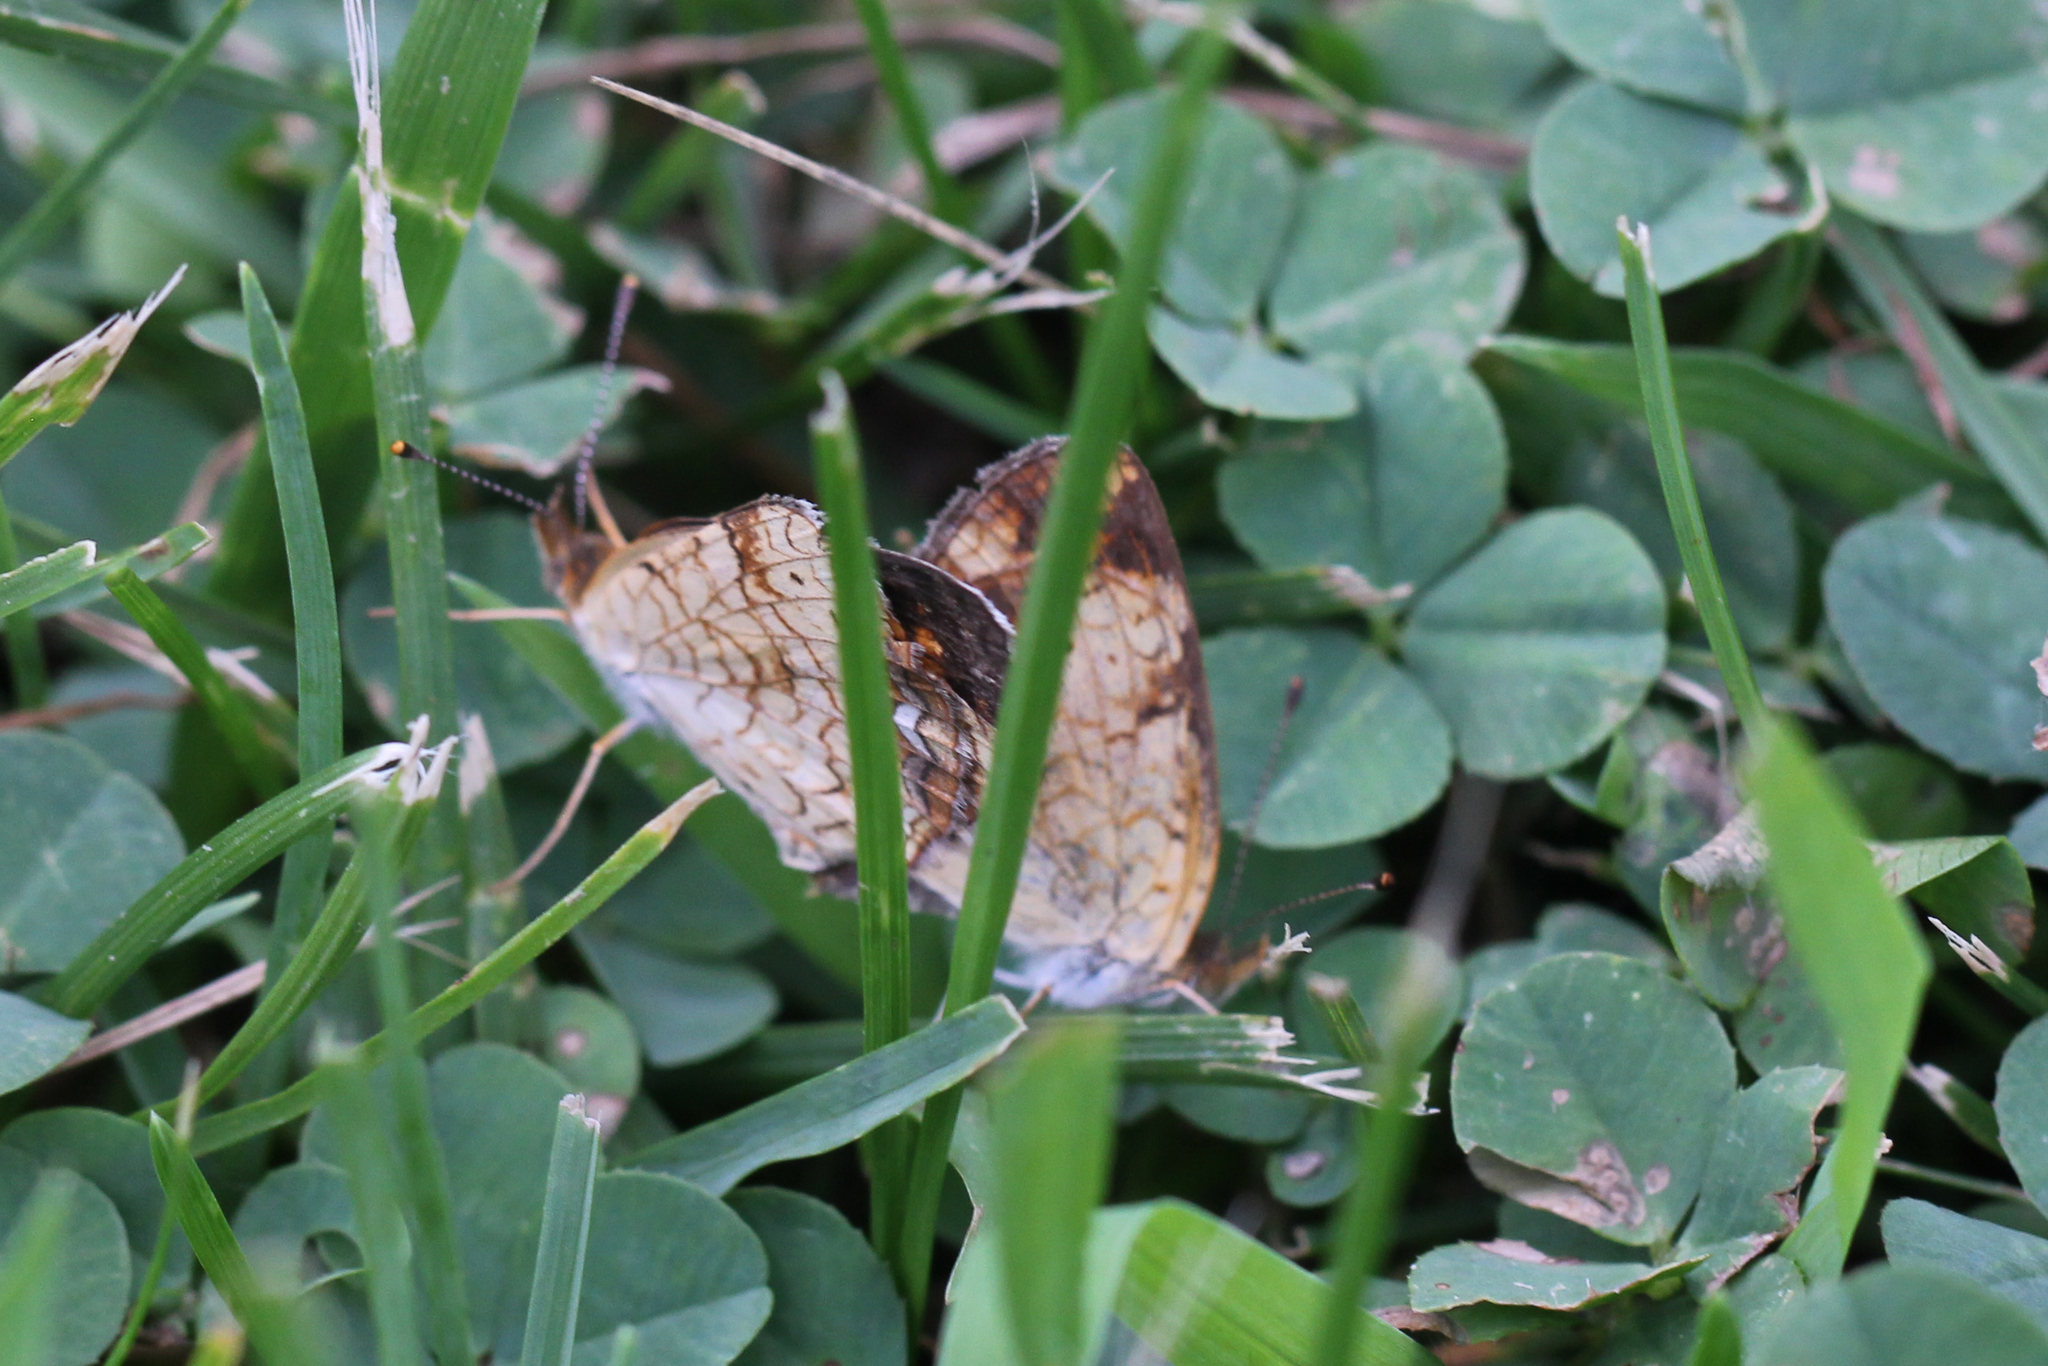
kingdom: Animalia
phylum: Arthropoda
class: Insecta
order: Lepidoptera
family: Nymphalidae
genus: Phyciodes
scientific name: Phyciodes tharos
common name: Pearl crescent
